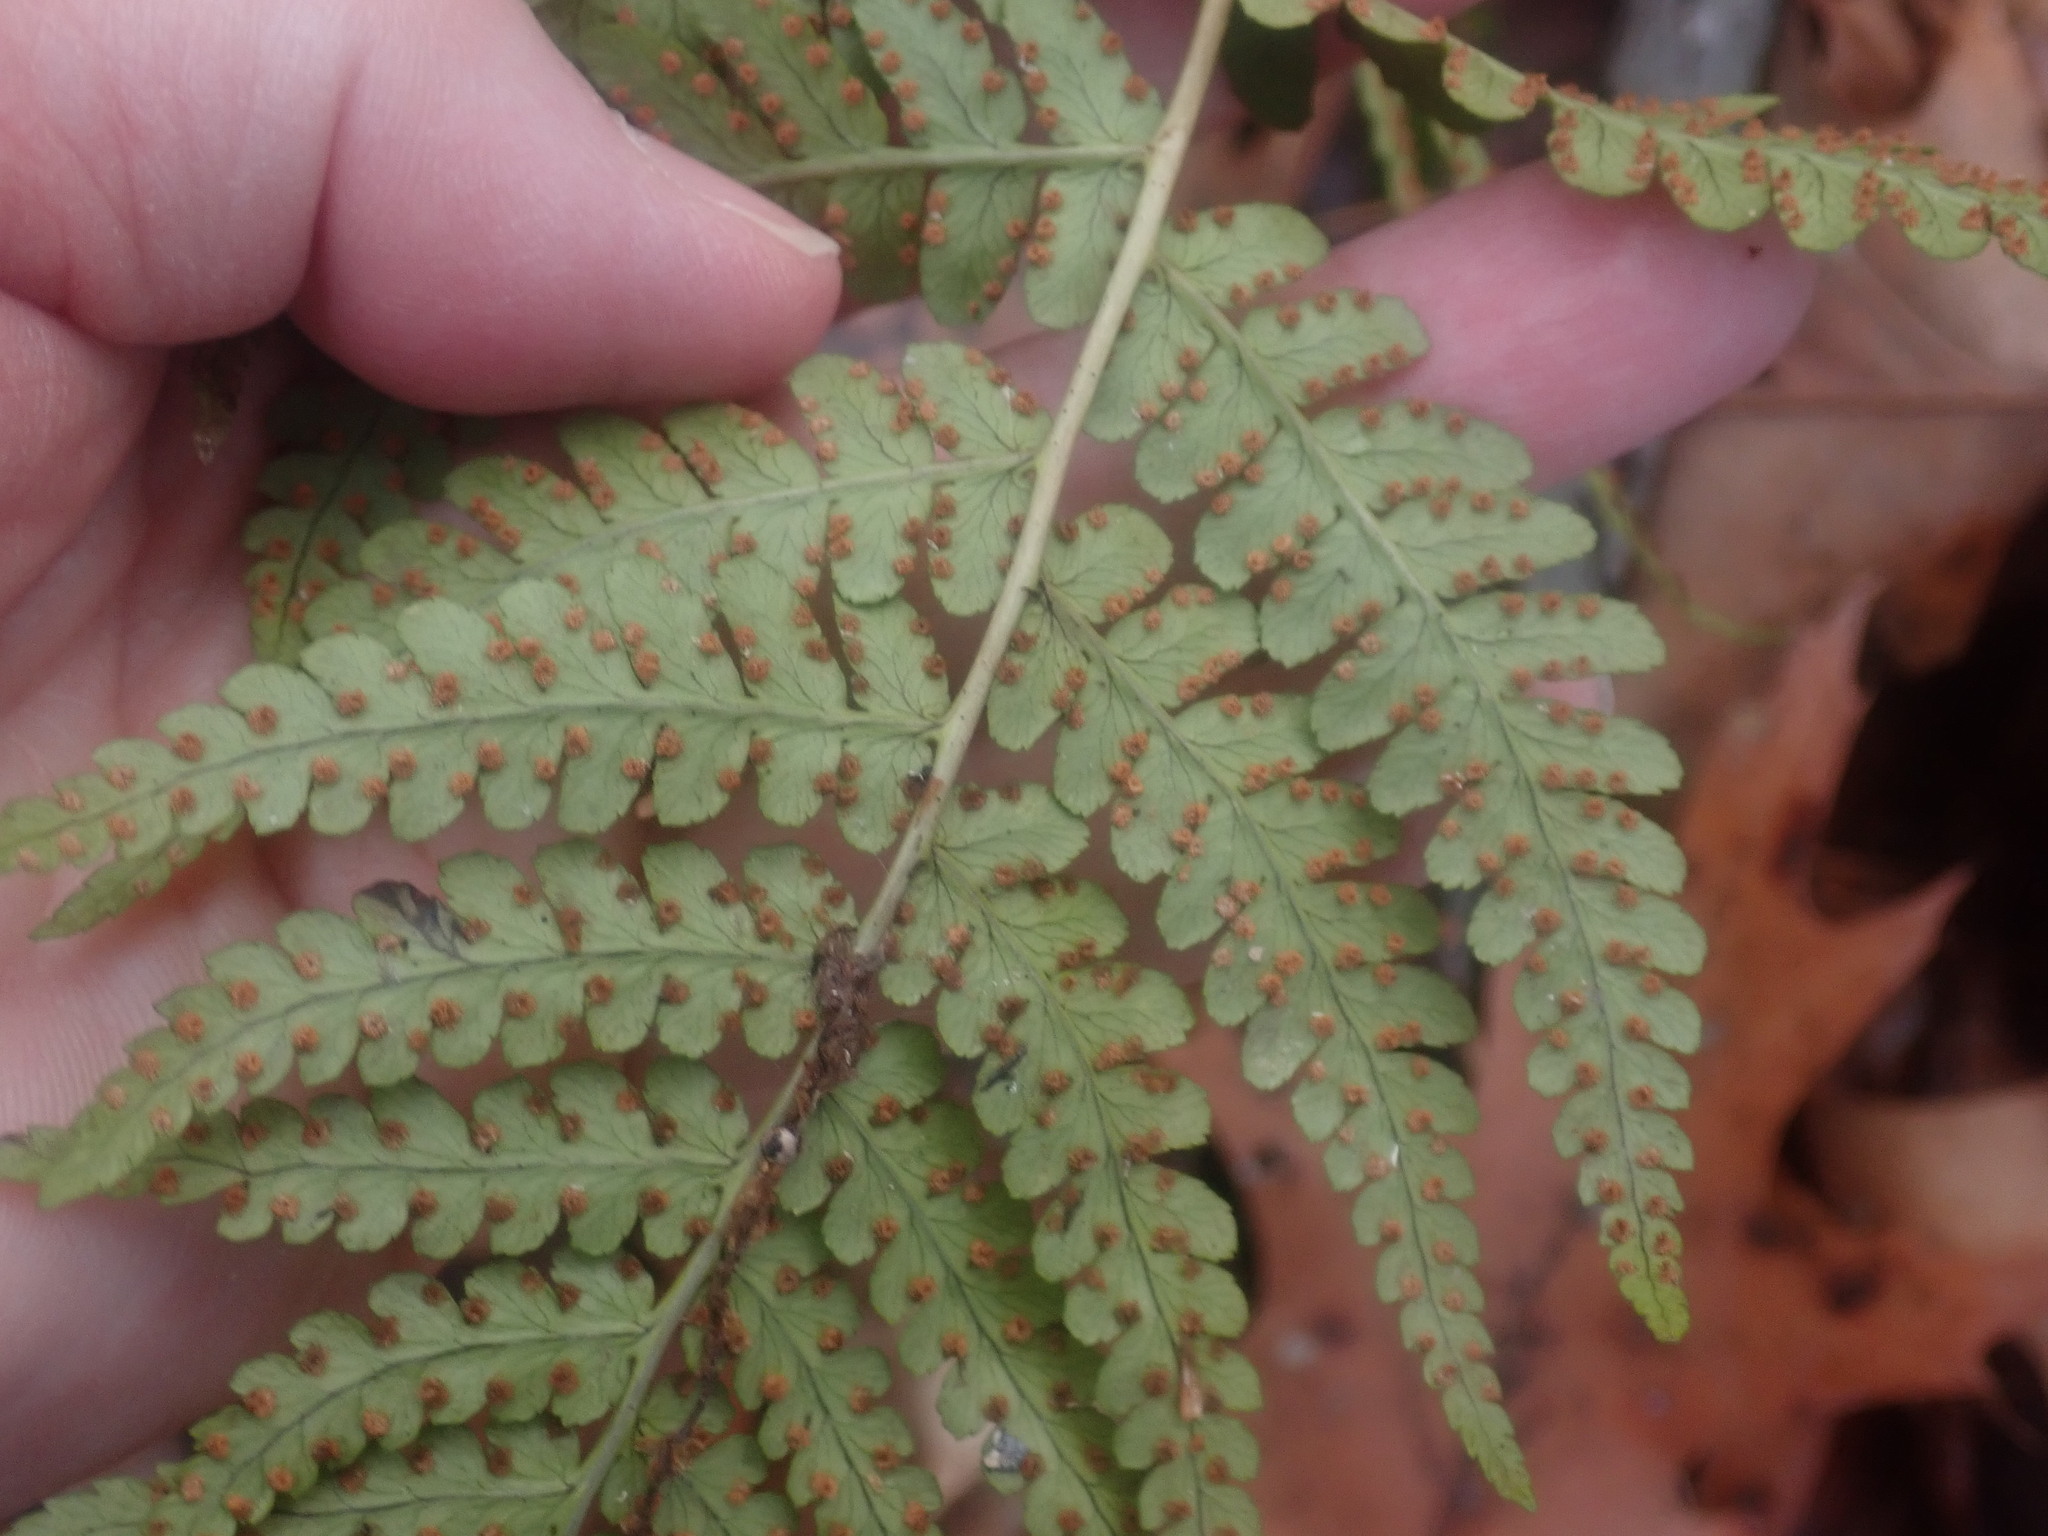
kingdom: Plantae
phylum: Tracheophyta
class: Polypodiopsida
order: Polypodiales
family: Dryopteridaceae
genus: Dryopteris
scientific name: Dryopteris marginalis
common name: Marginal wood fern
